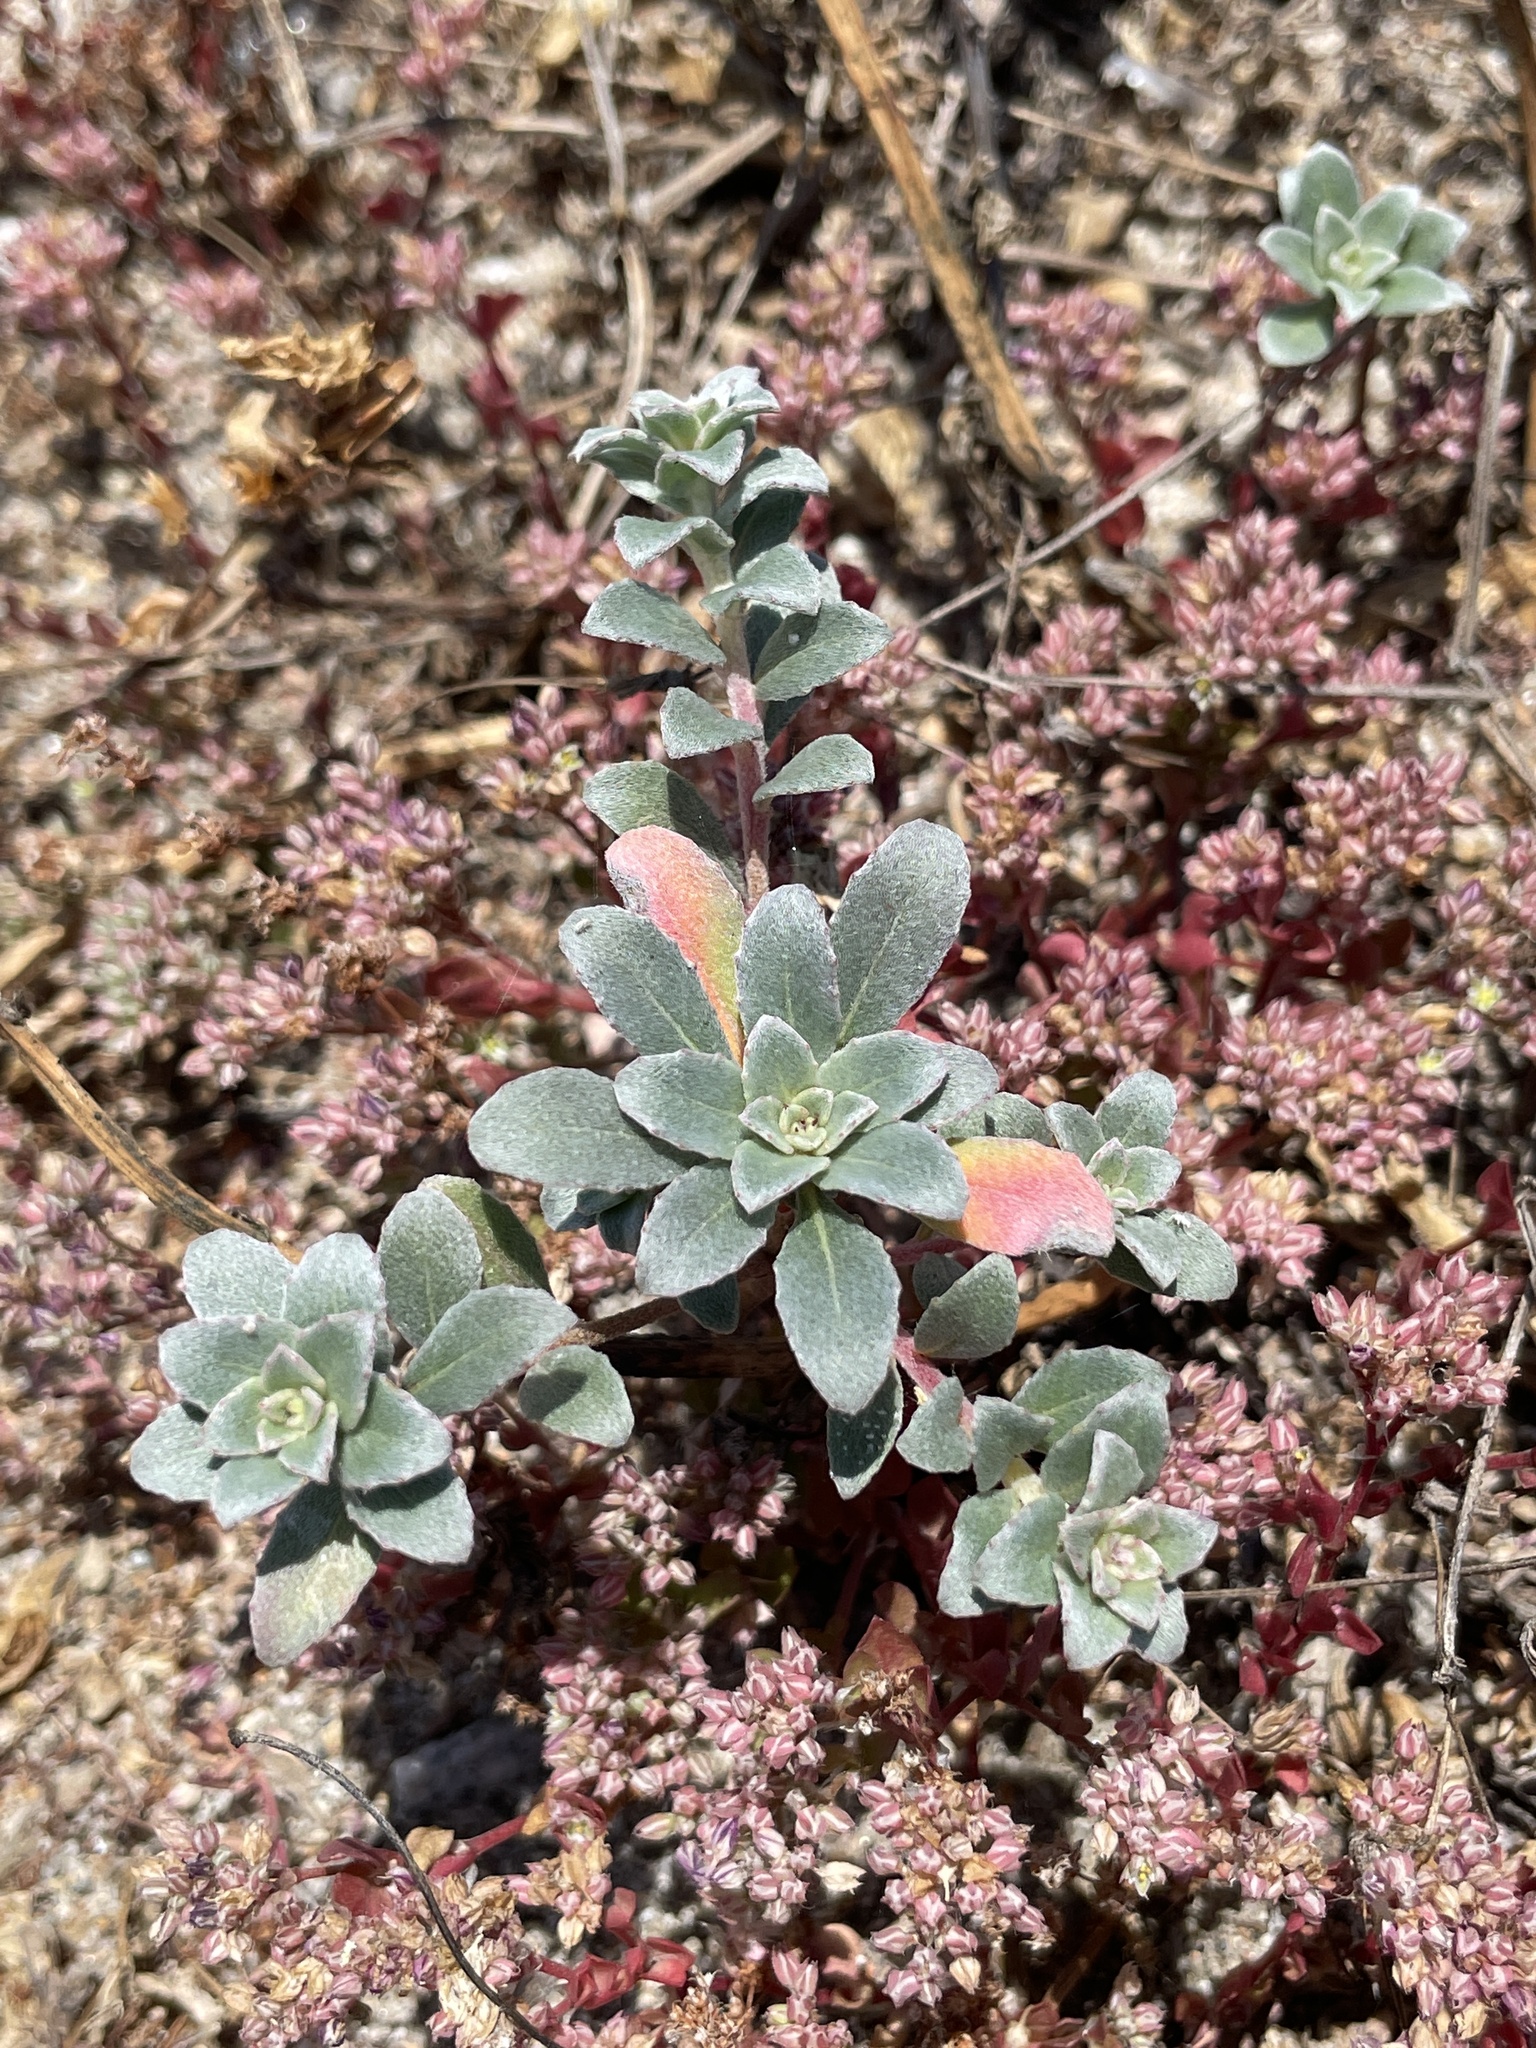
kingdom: Plantae
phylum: Tracheophyta
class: Magnoliopsida
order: Myrtales
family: Onagraceae
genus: Camissoniopsis
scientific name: Camissoniopsis cheiranthifolia
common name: Beach suncup
